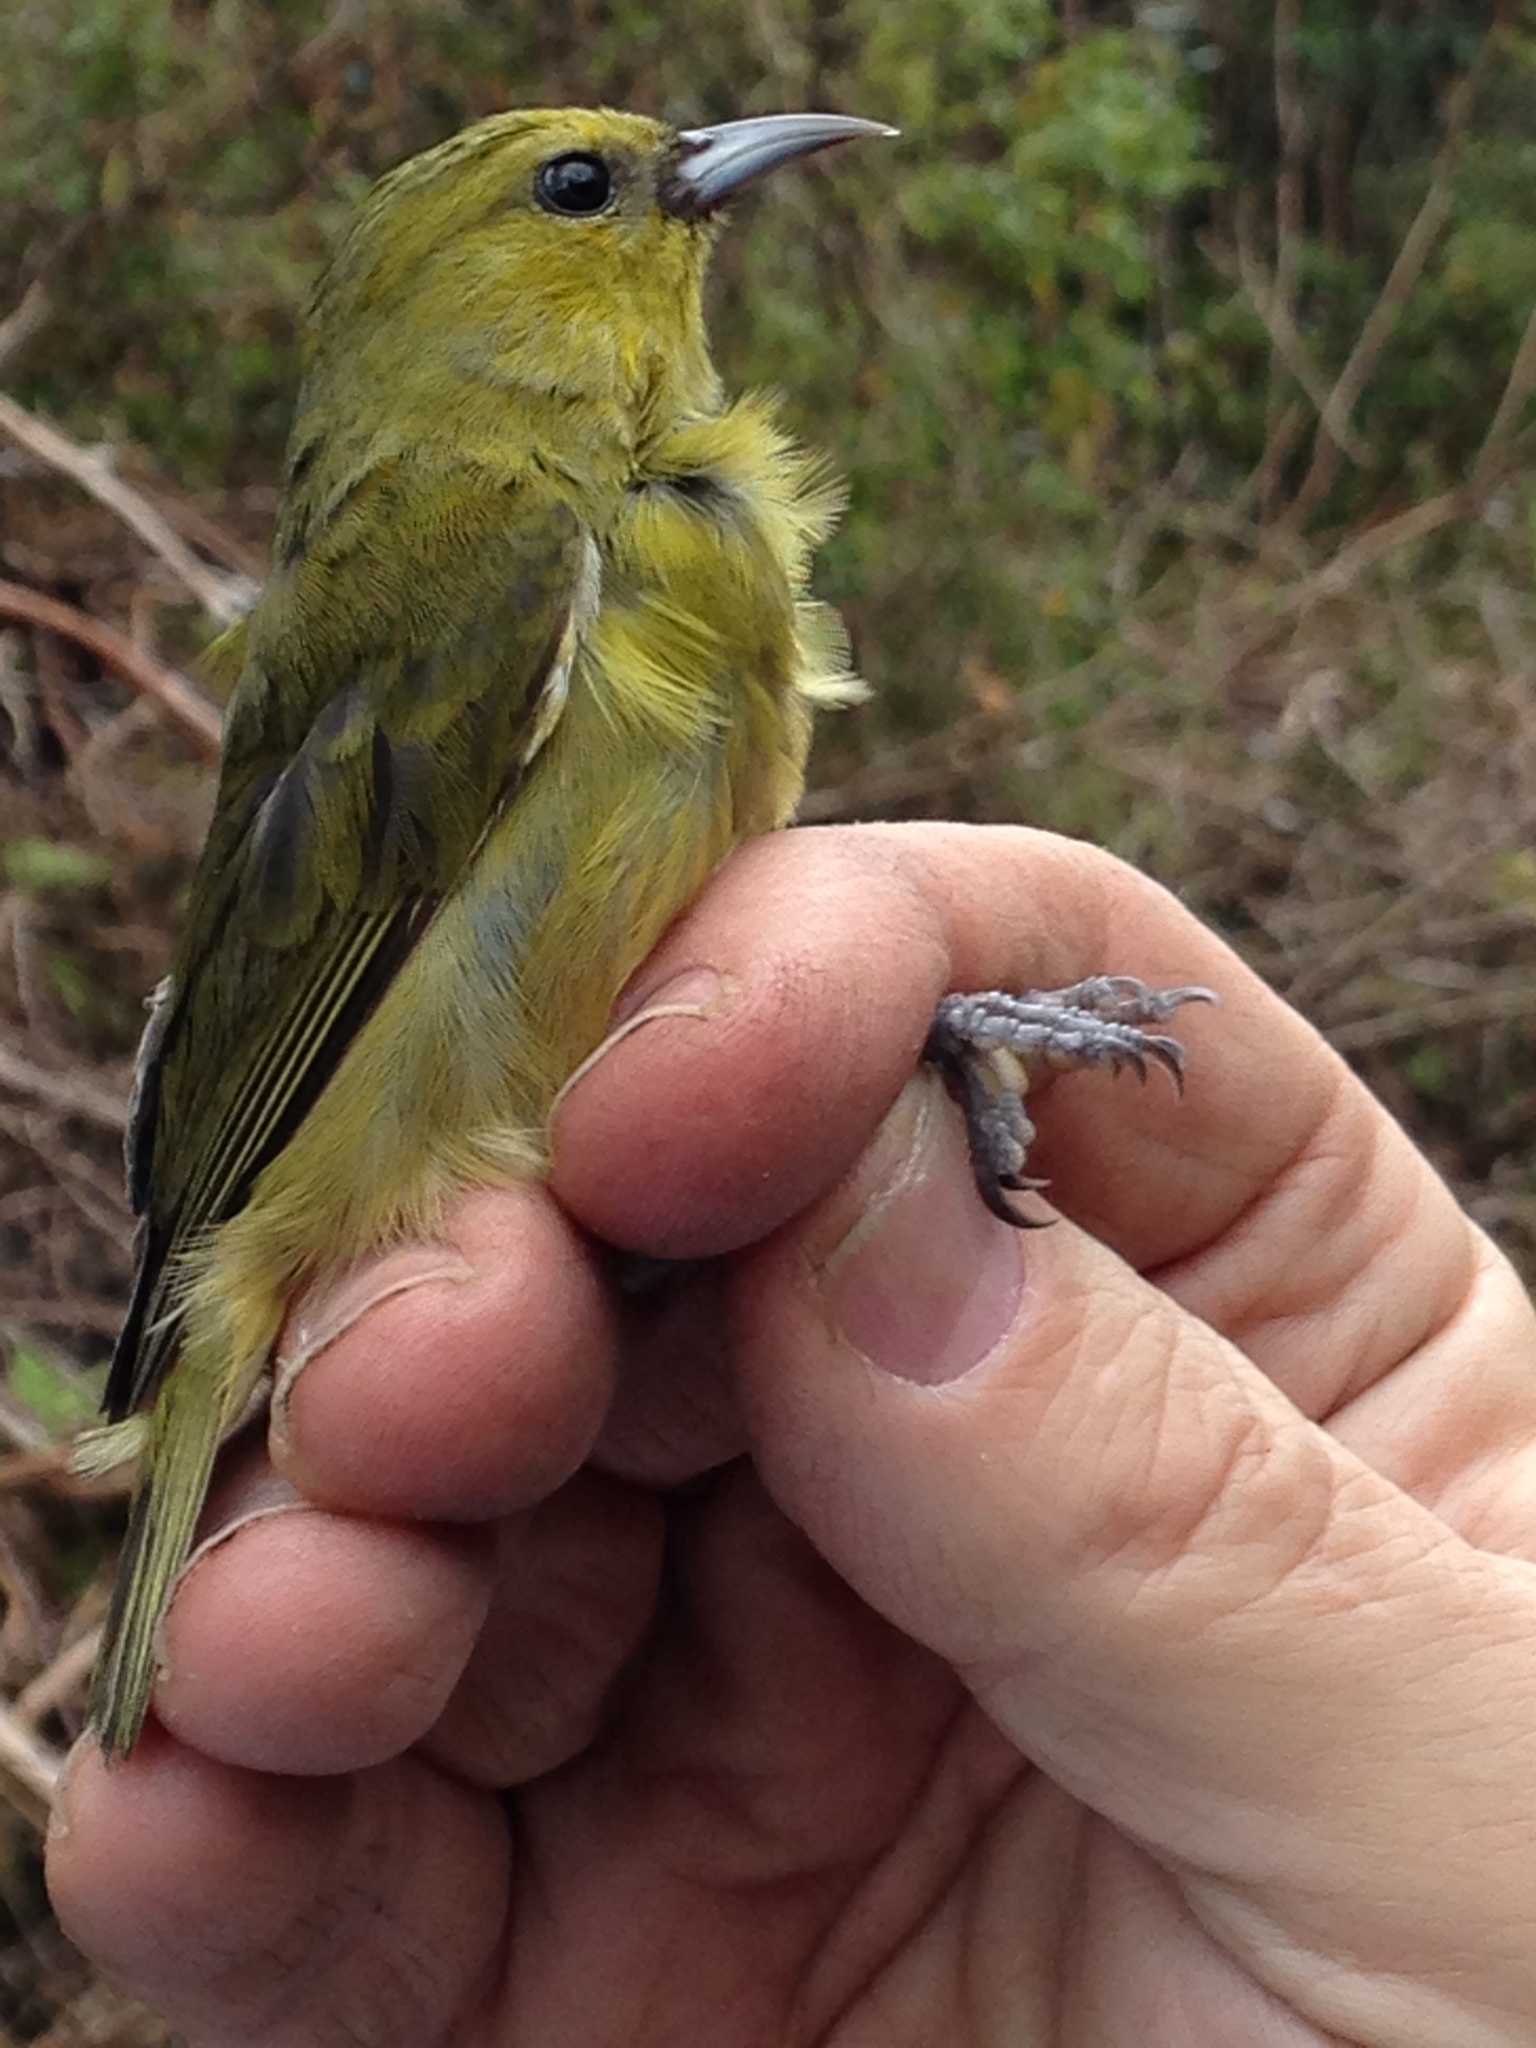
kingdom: Animalia
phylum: Chordata
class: Aves
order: Passeriformes
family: Fringillidae
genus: Chlorodrepanis
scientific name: Chlorodrepanis virens
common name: Hawaii amakihi
